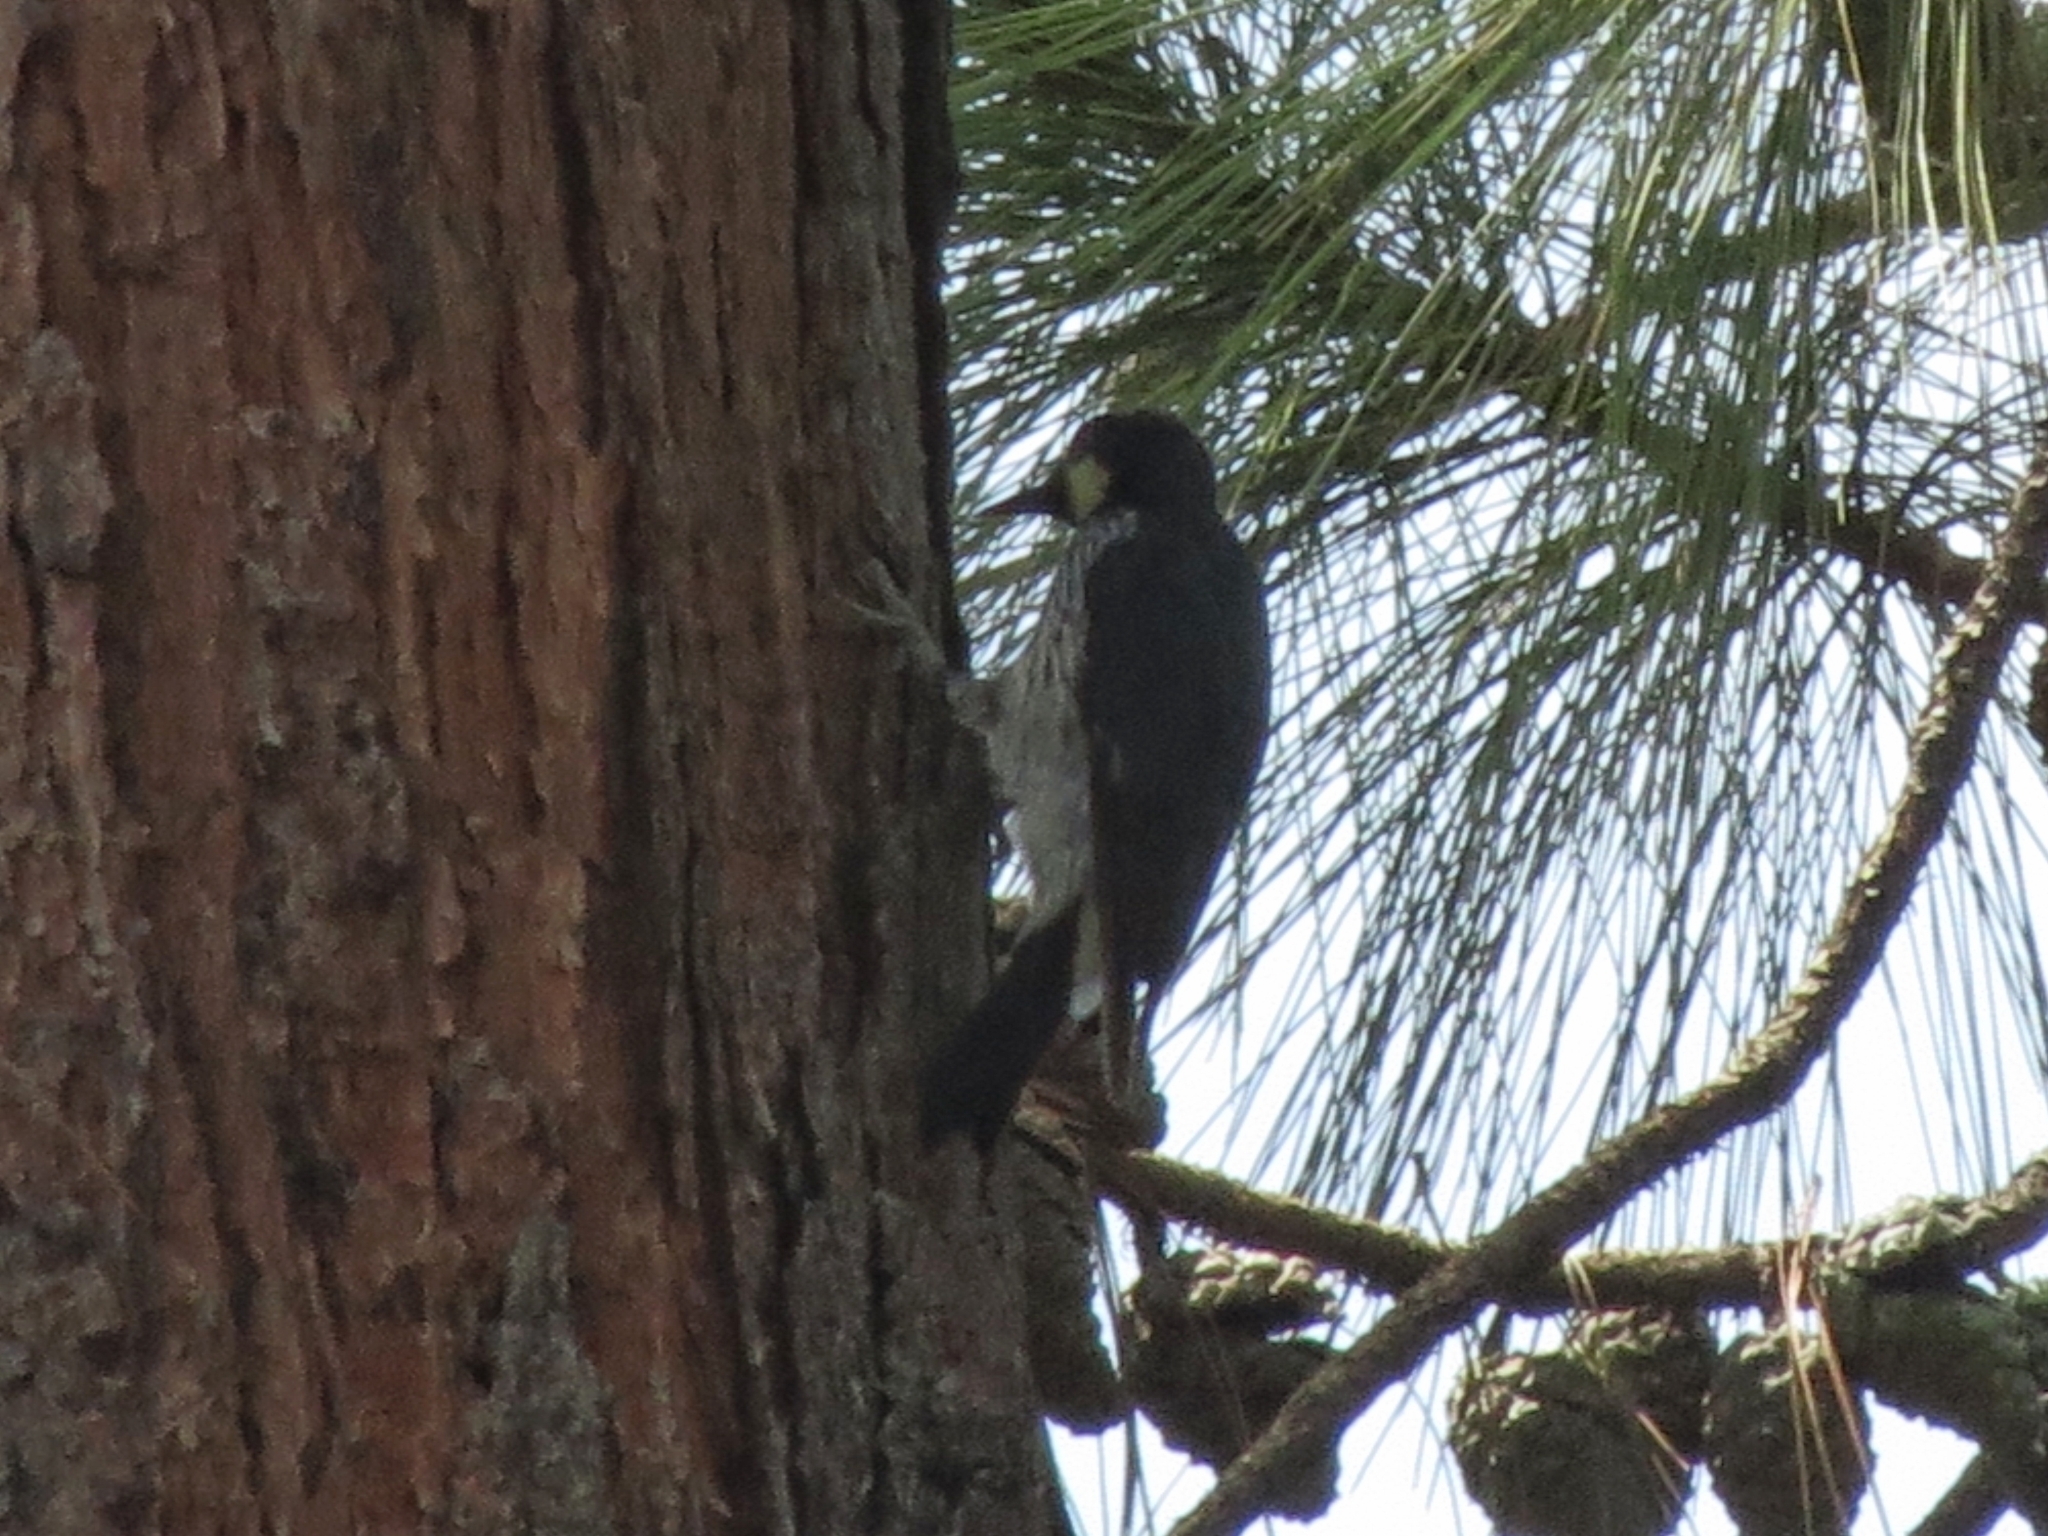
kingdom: Animalia
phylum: Chordata
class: Aves
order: Piciformes
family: Picidae
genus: Melanerpes
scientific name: Melanerpes formicivorus
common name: Acorn woodpecker
